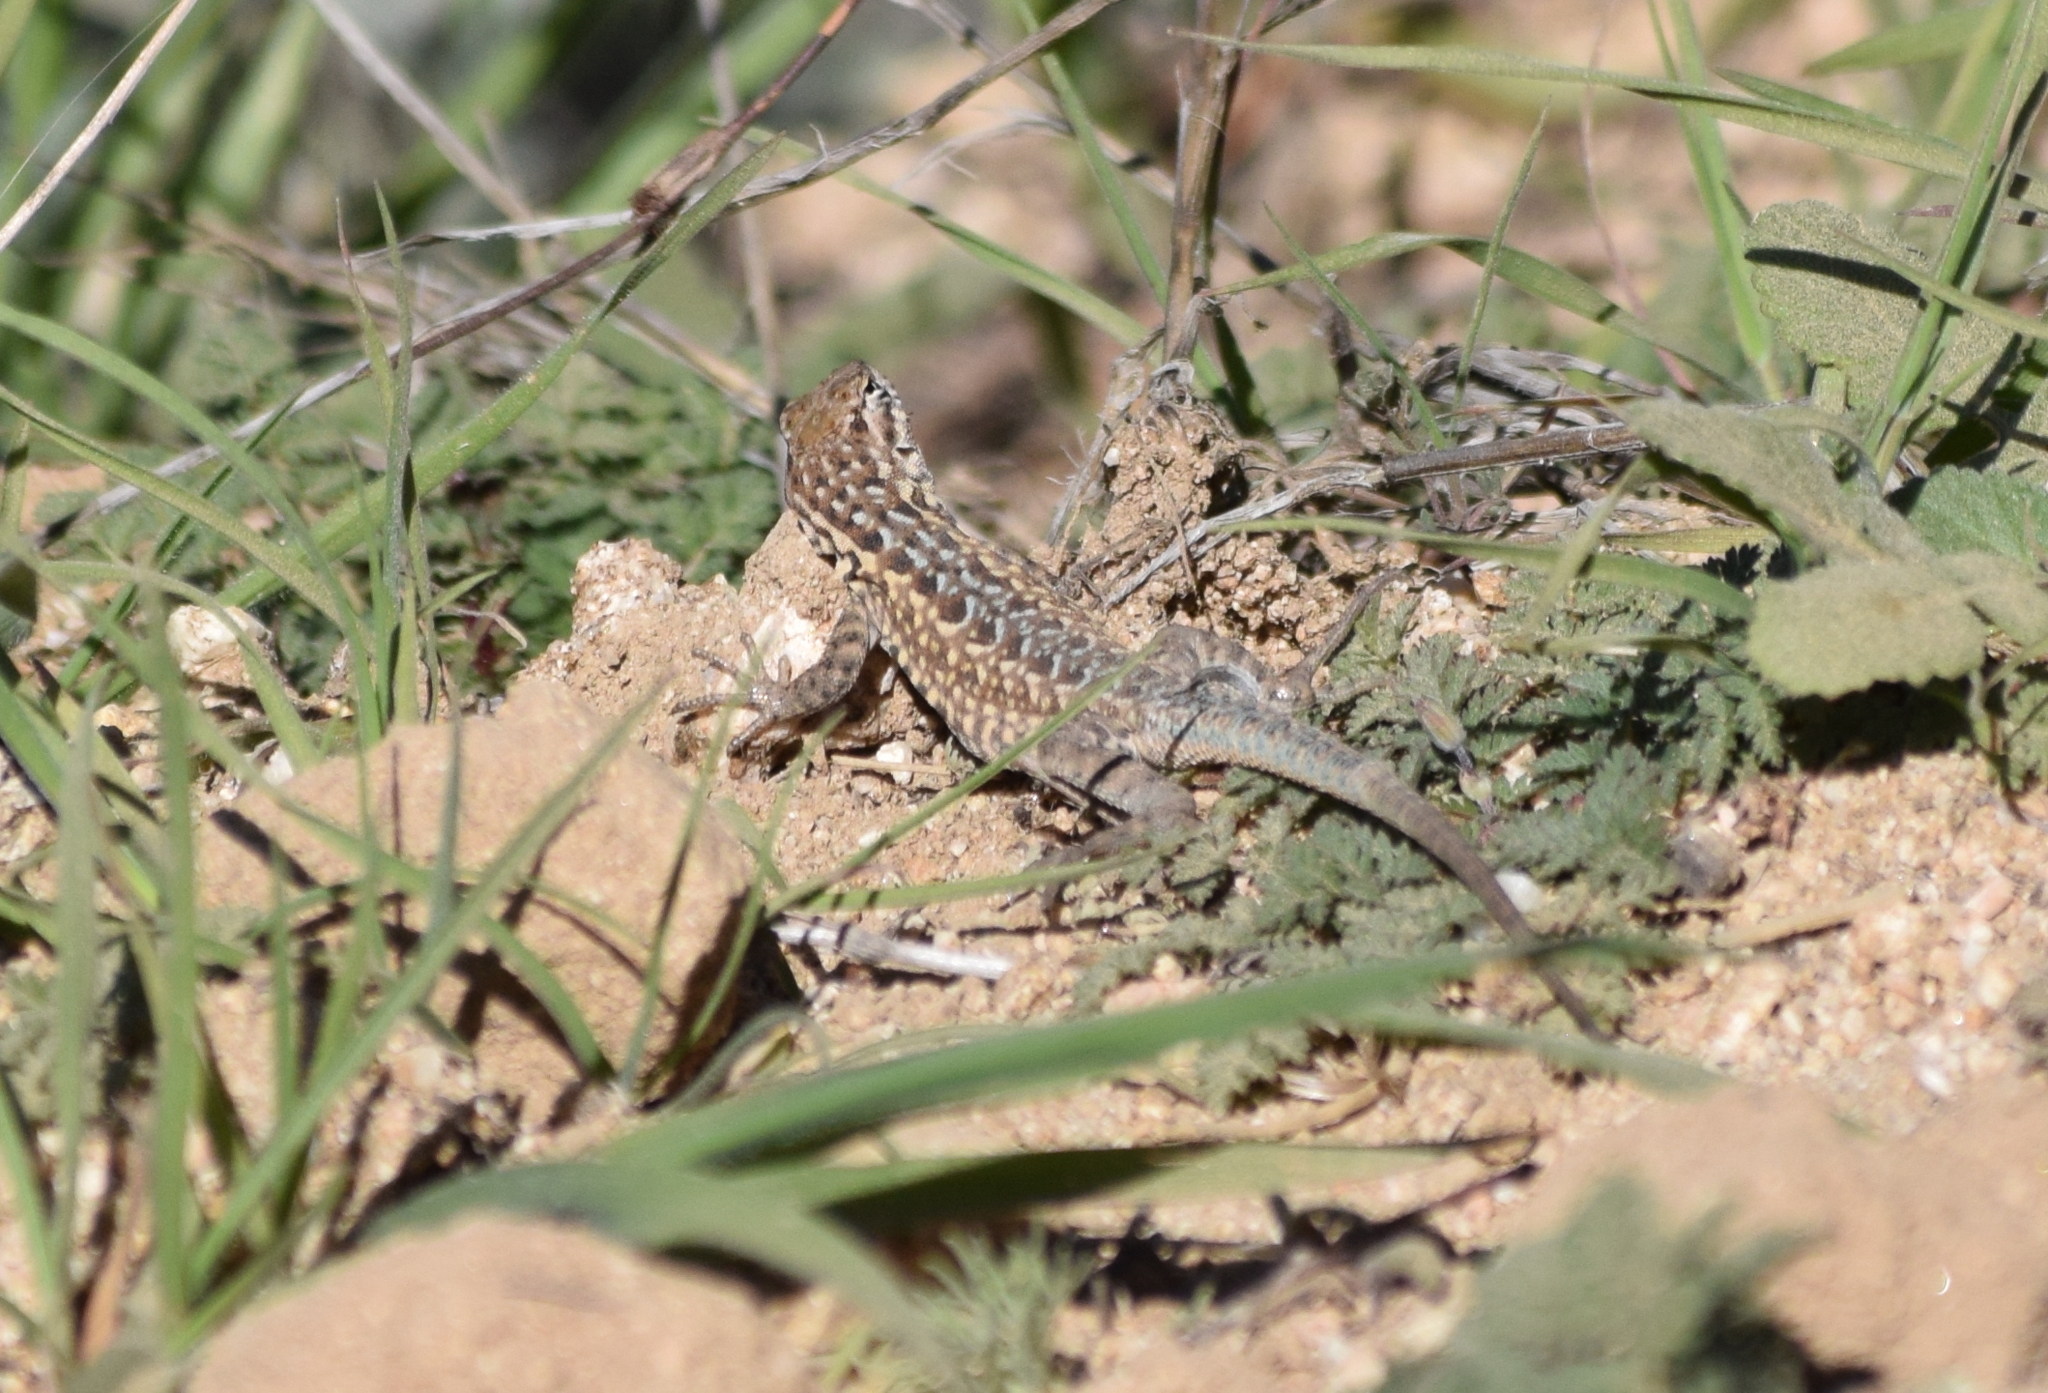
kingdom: Animalia
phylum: Chordata
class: Squamata
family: Phrynosomatidae
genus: Uta
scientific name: Uta stansburiana
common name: Side-blotched lizard
